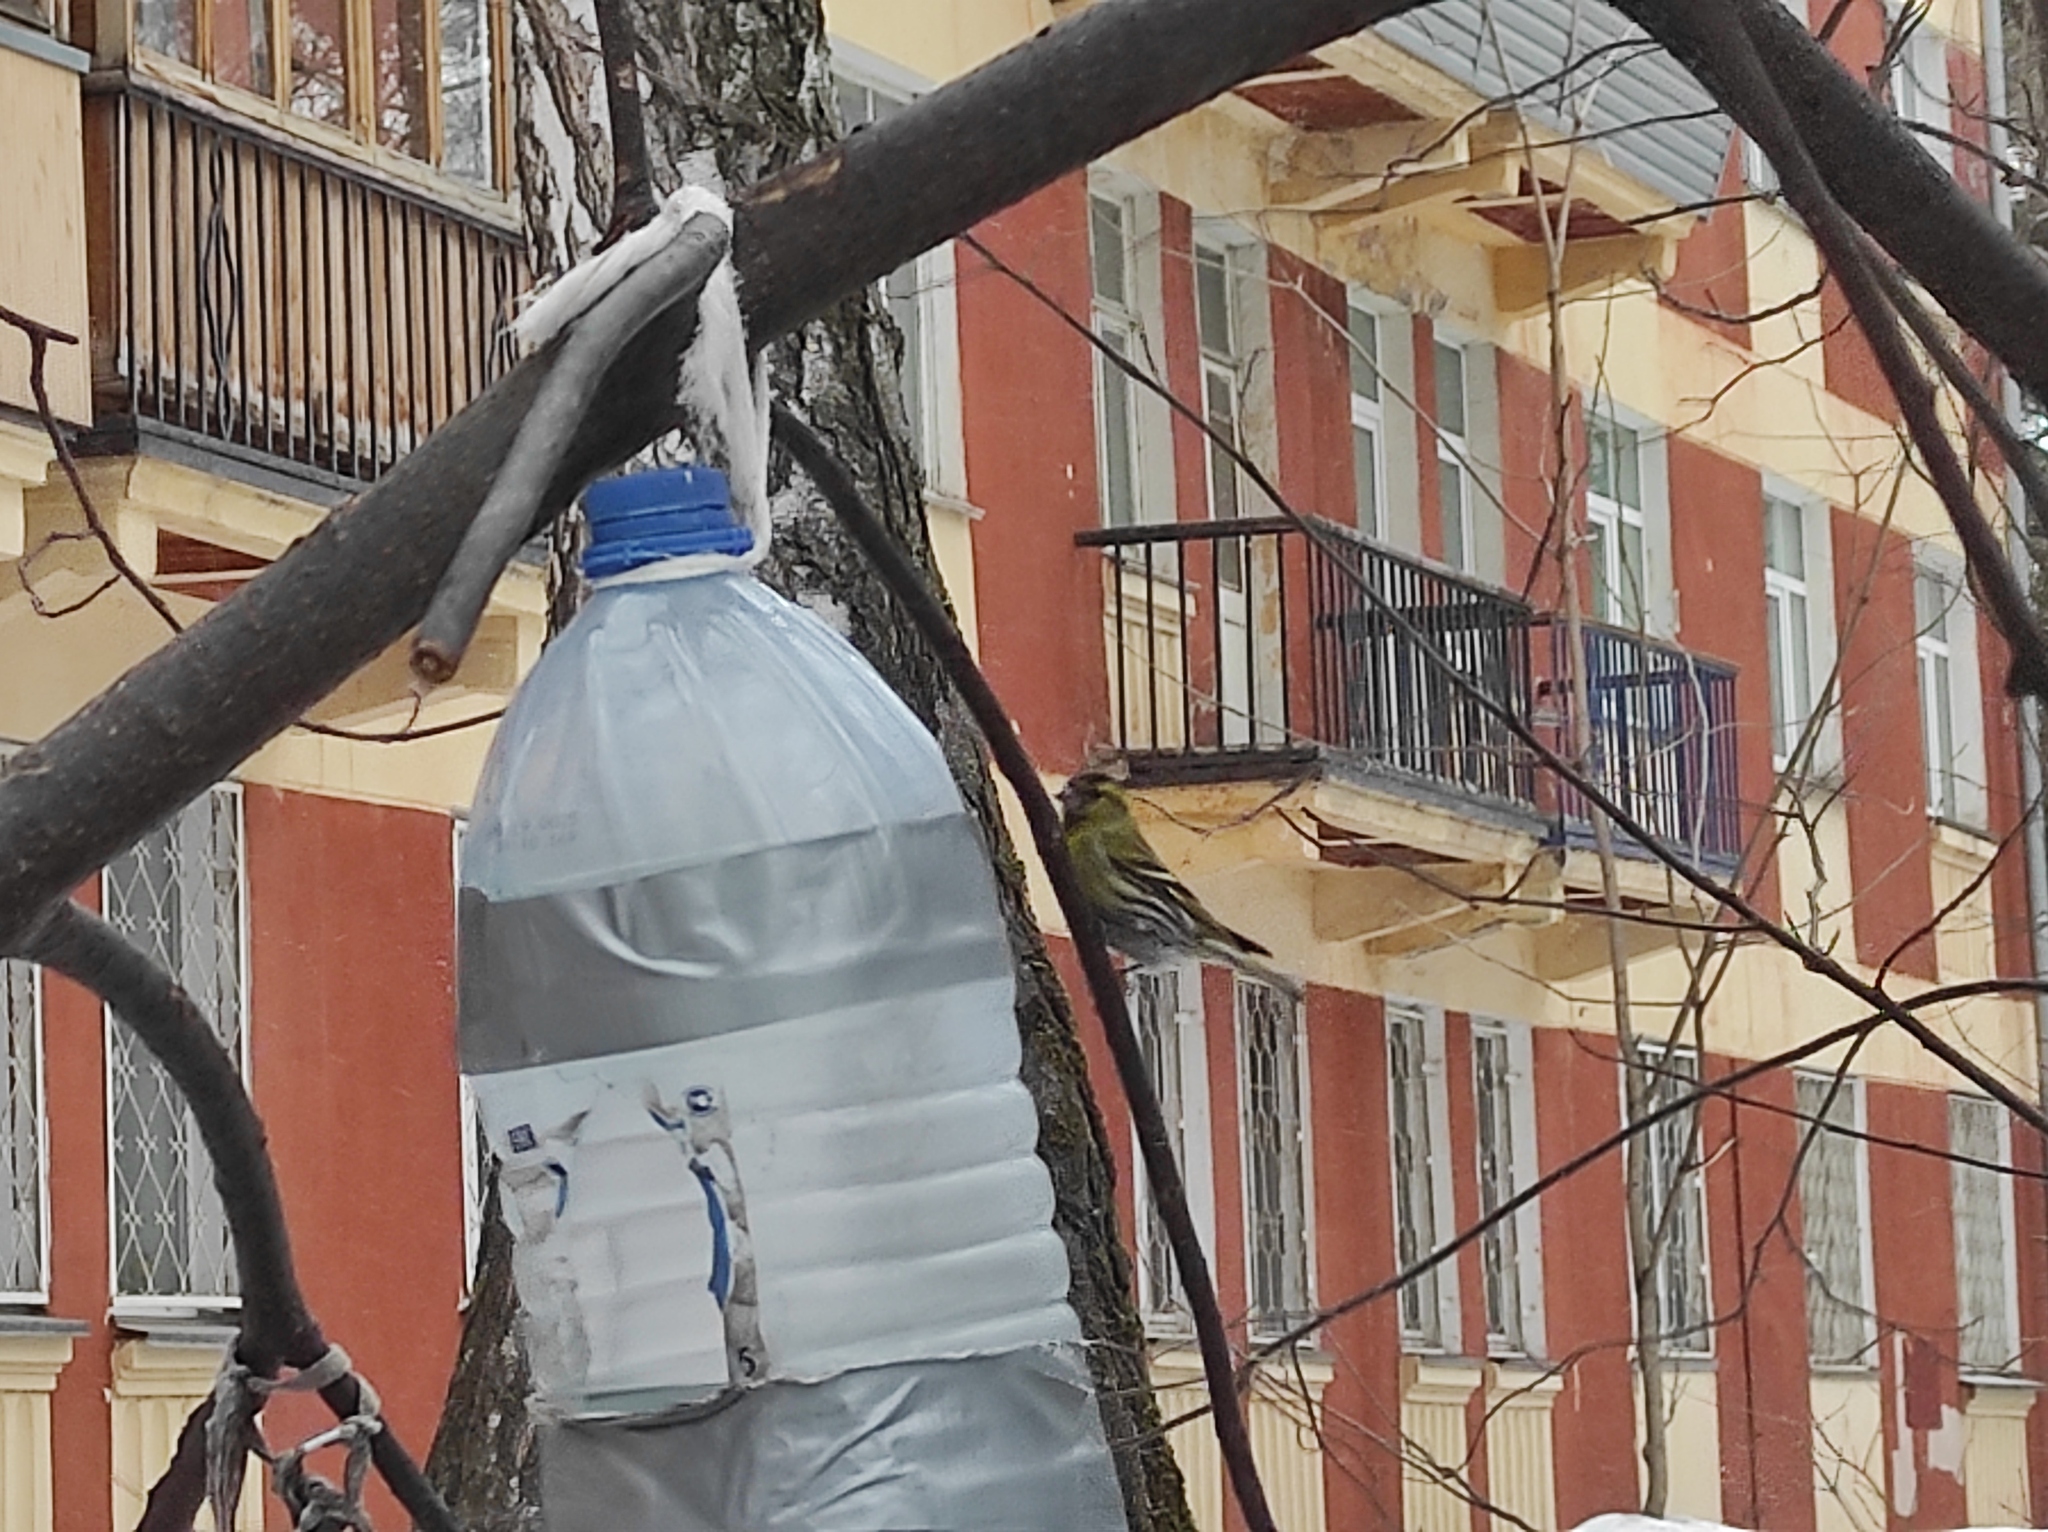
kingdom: Animalia
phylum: Chordata
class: Aves
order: Passeriformes
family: Fringillidae
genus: Spinus
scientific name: Spinus spinus
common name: Eurasian siskin
